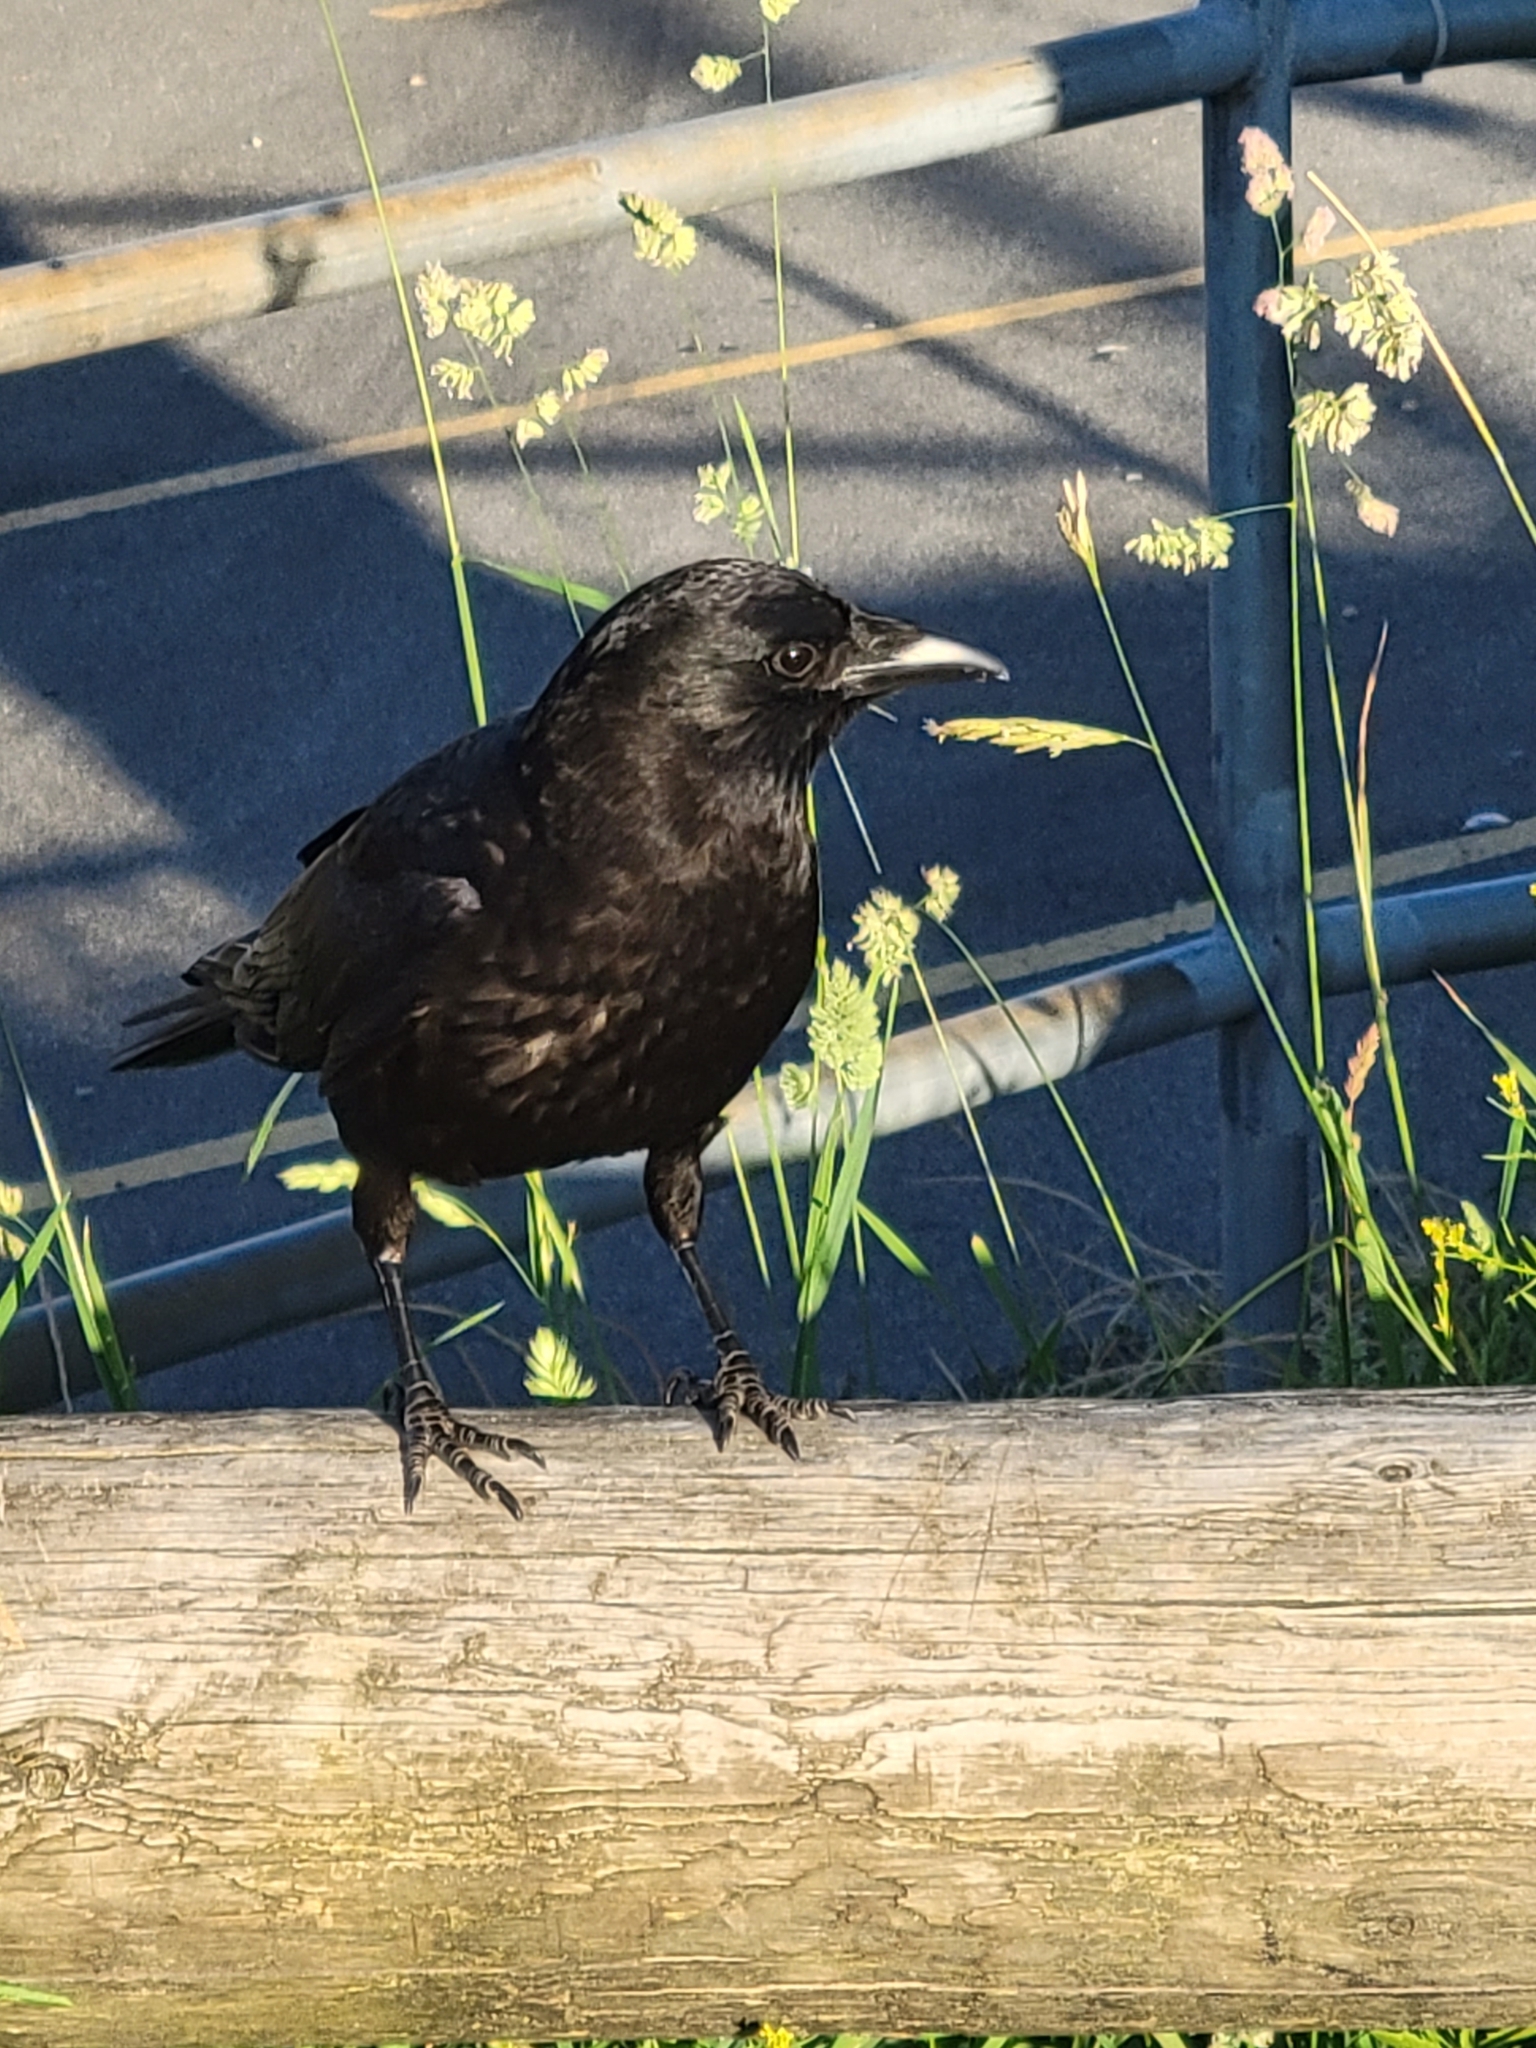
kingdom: Animalia
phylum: Chordata
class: Aves
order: Passeriformes
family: Corvidae
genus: Corvus
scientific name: Corvus brachyrhynchos
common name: American crow
